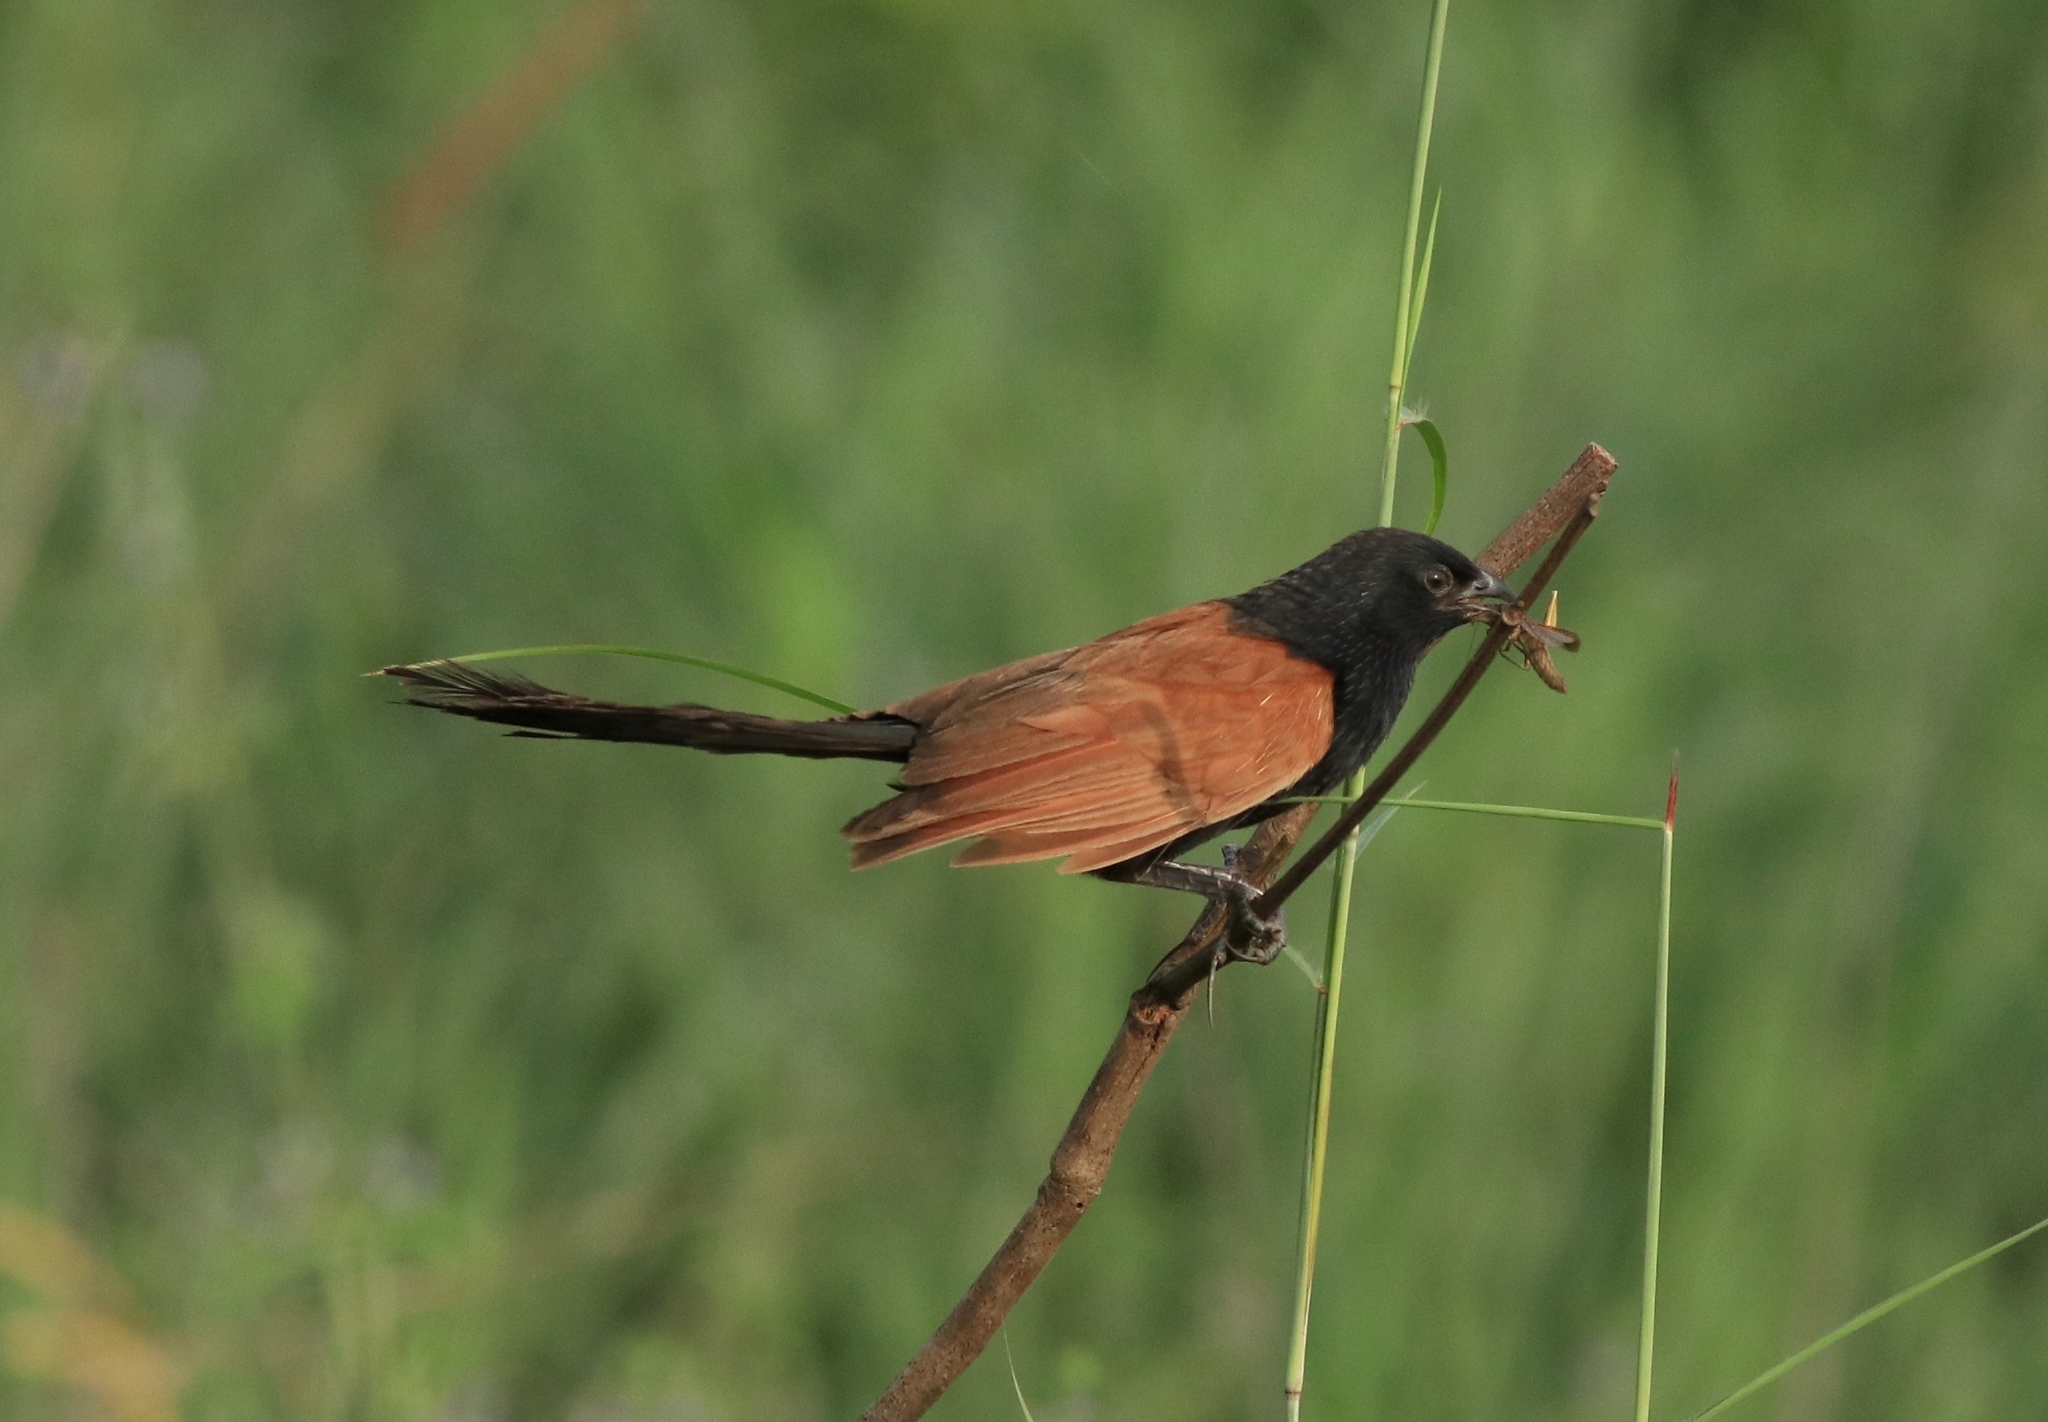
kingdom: Animalia
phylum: Chordata
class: Aves
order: Cuculiformes
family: Cuculidae
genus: Centropus
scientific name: Centropus bengalensis
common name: Lesser coucal
